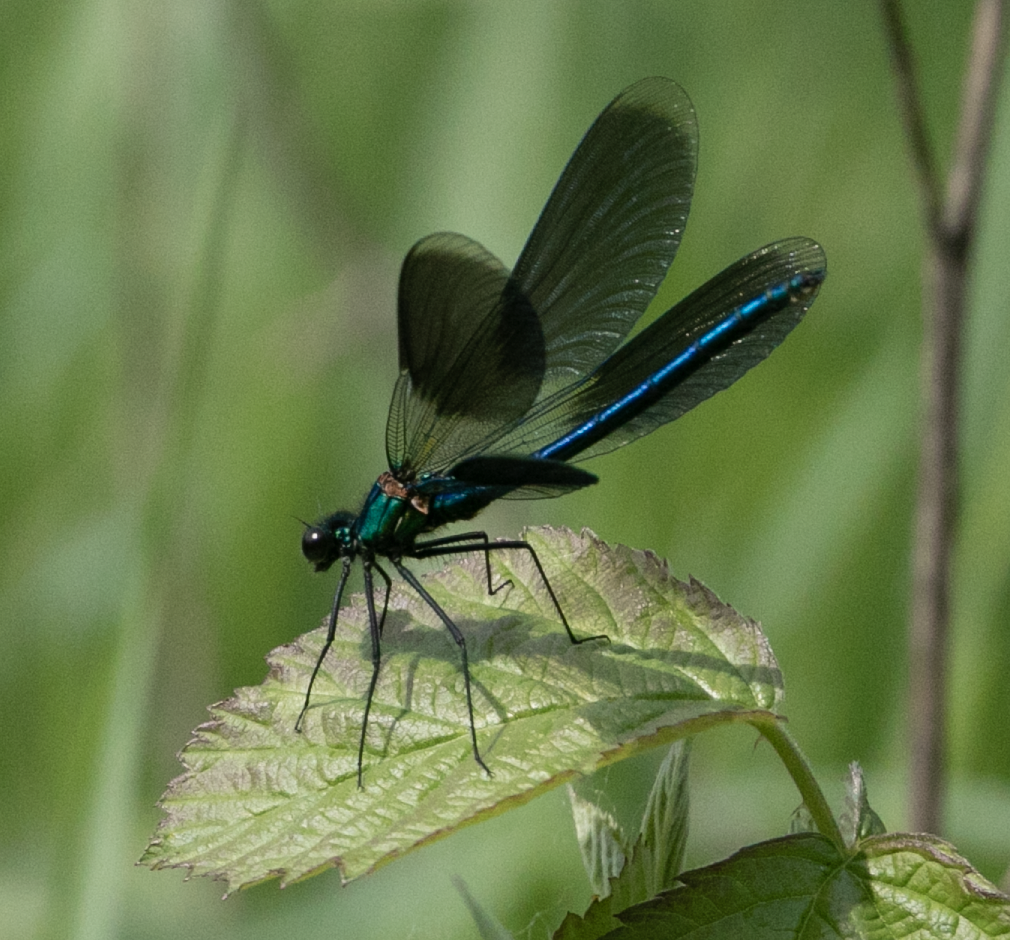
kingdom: Animalia
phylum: Arthropoda
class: Insecta
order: Odonata
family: Calopterygidae
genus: Calopteryx
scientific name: Calopteryx splendens
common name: Banded demoiselle
